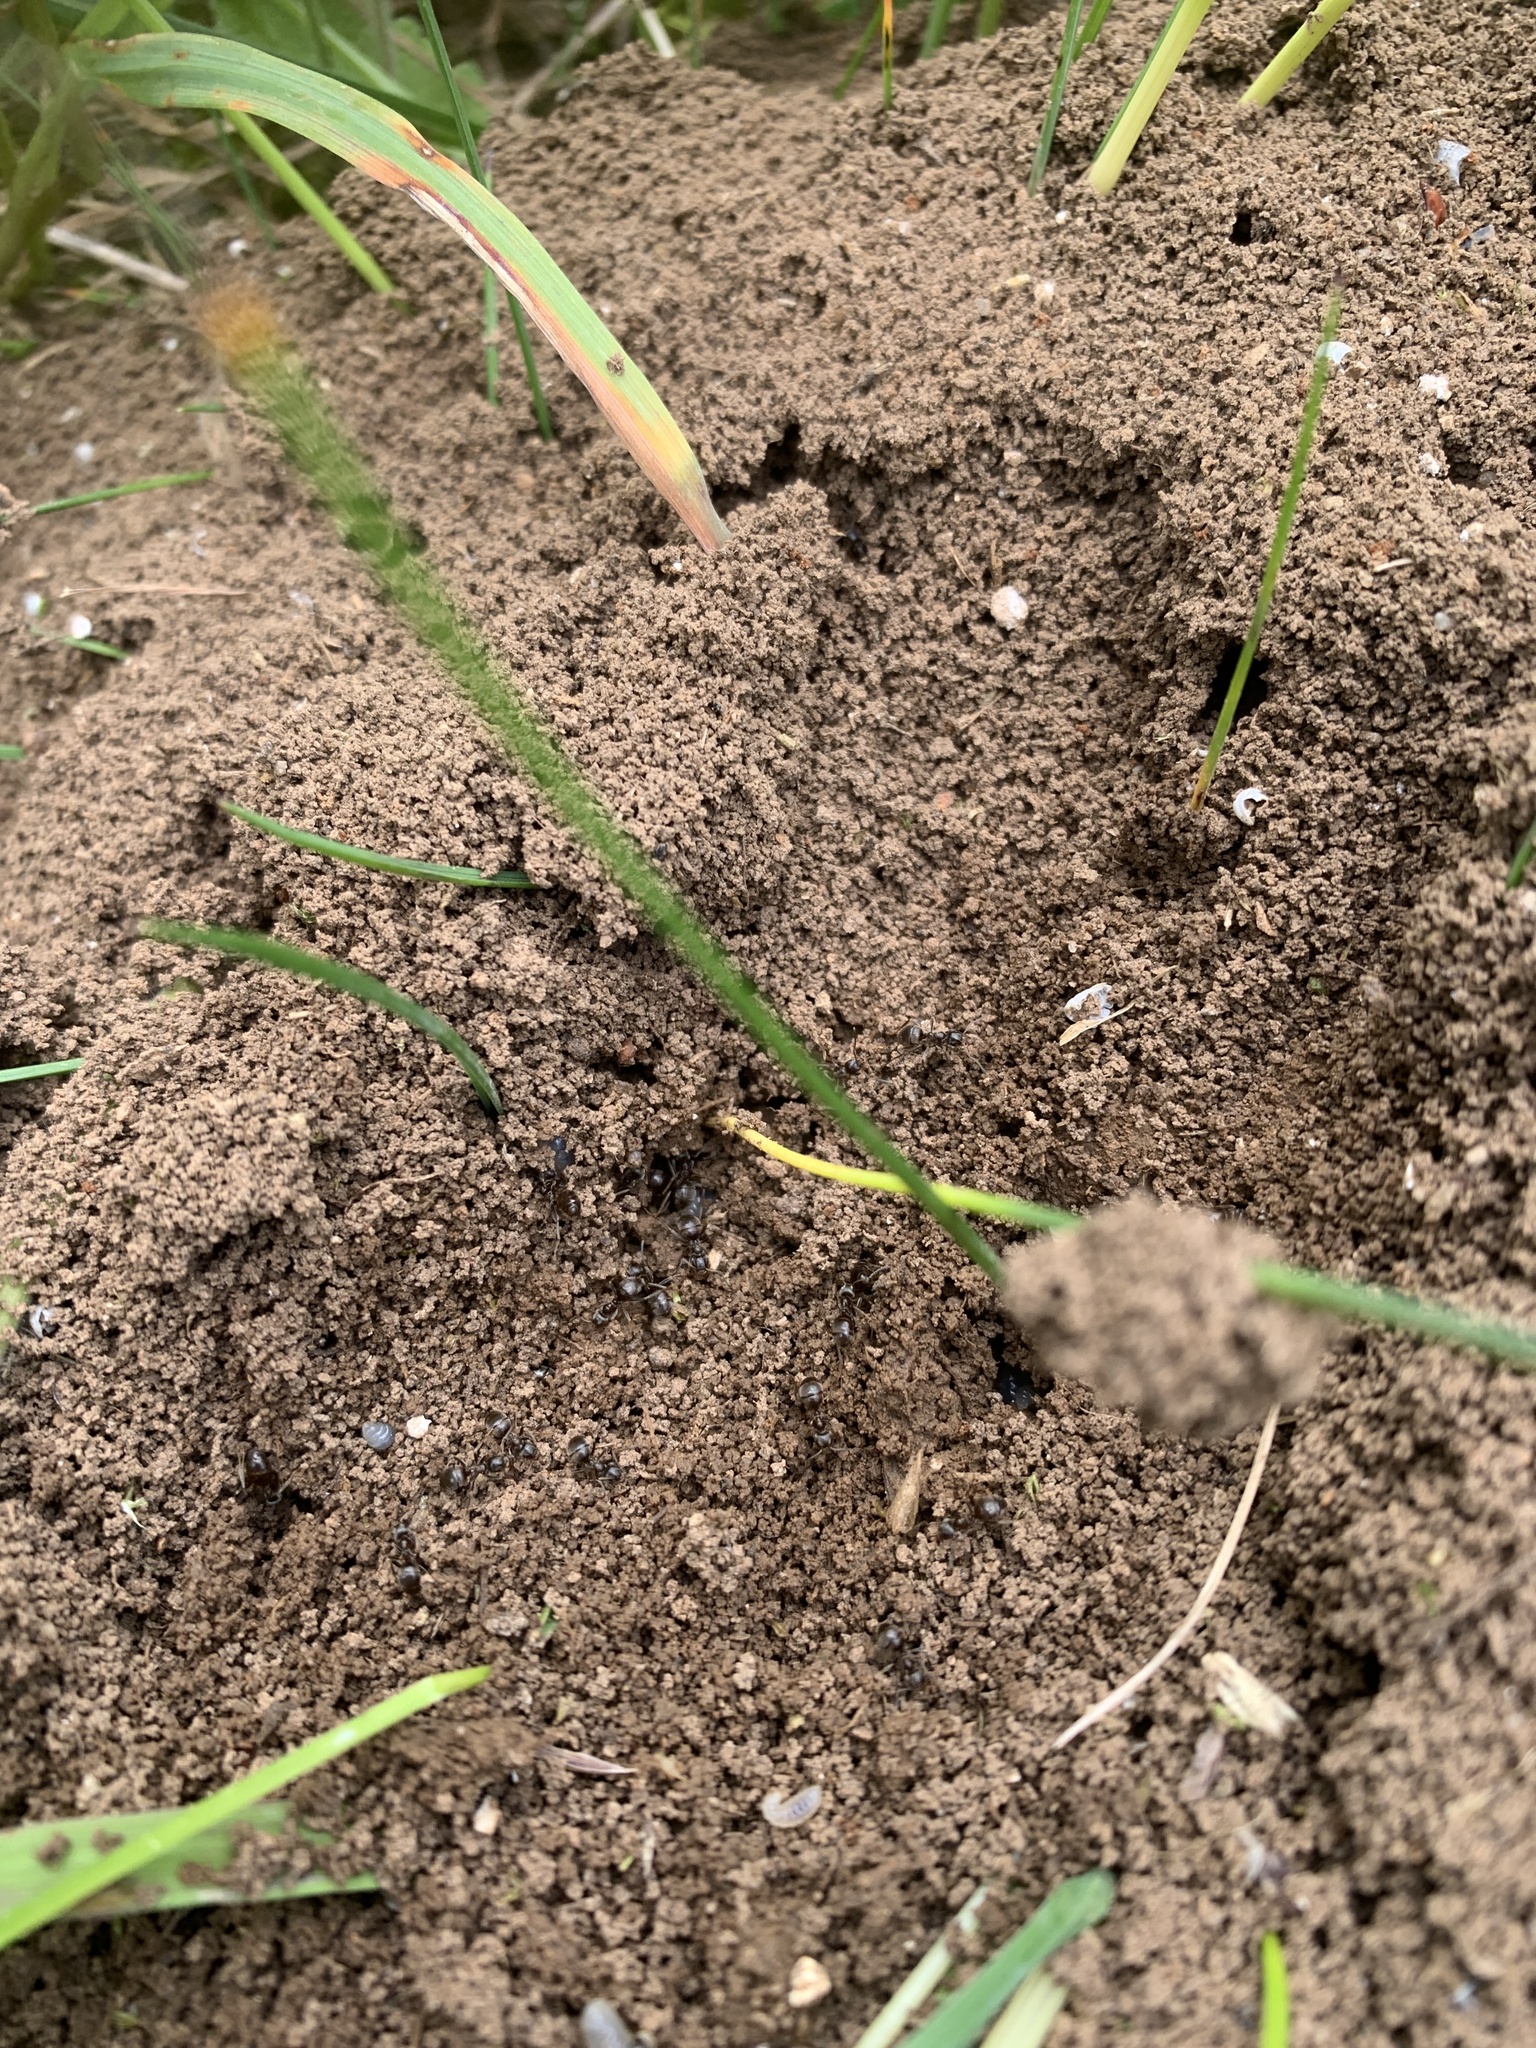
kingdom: Animalia
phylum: Arthropoda
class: Insecta
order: Hymenoptera
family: Formicidae
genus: Lasius
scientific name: Lasius niger
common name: Small black ant
